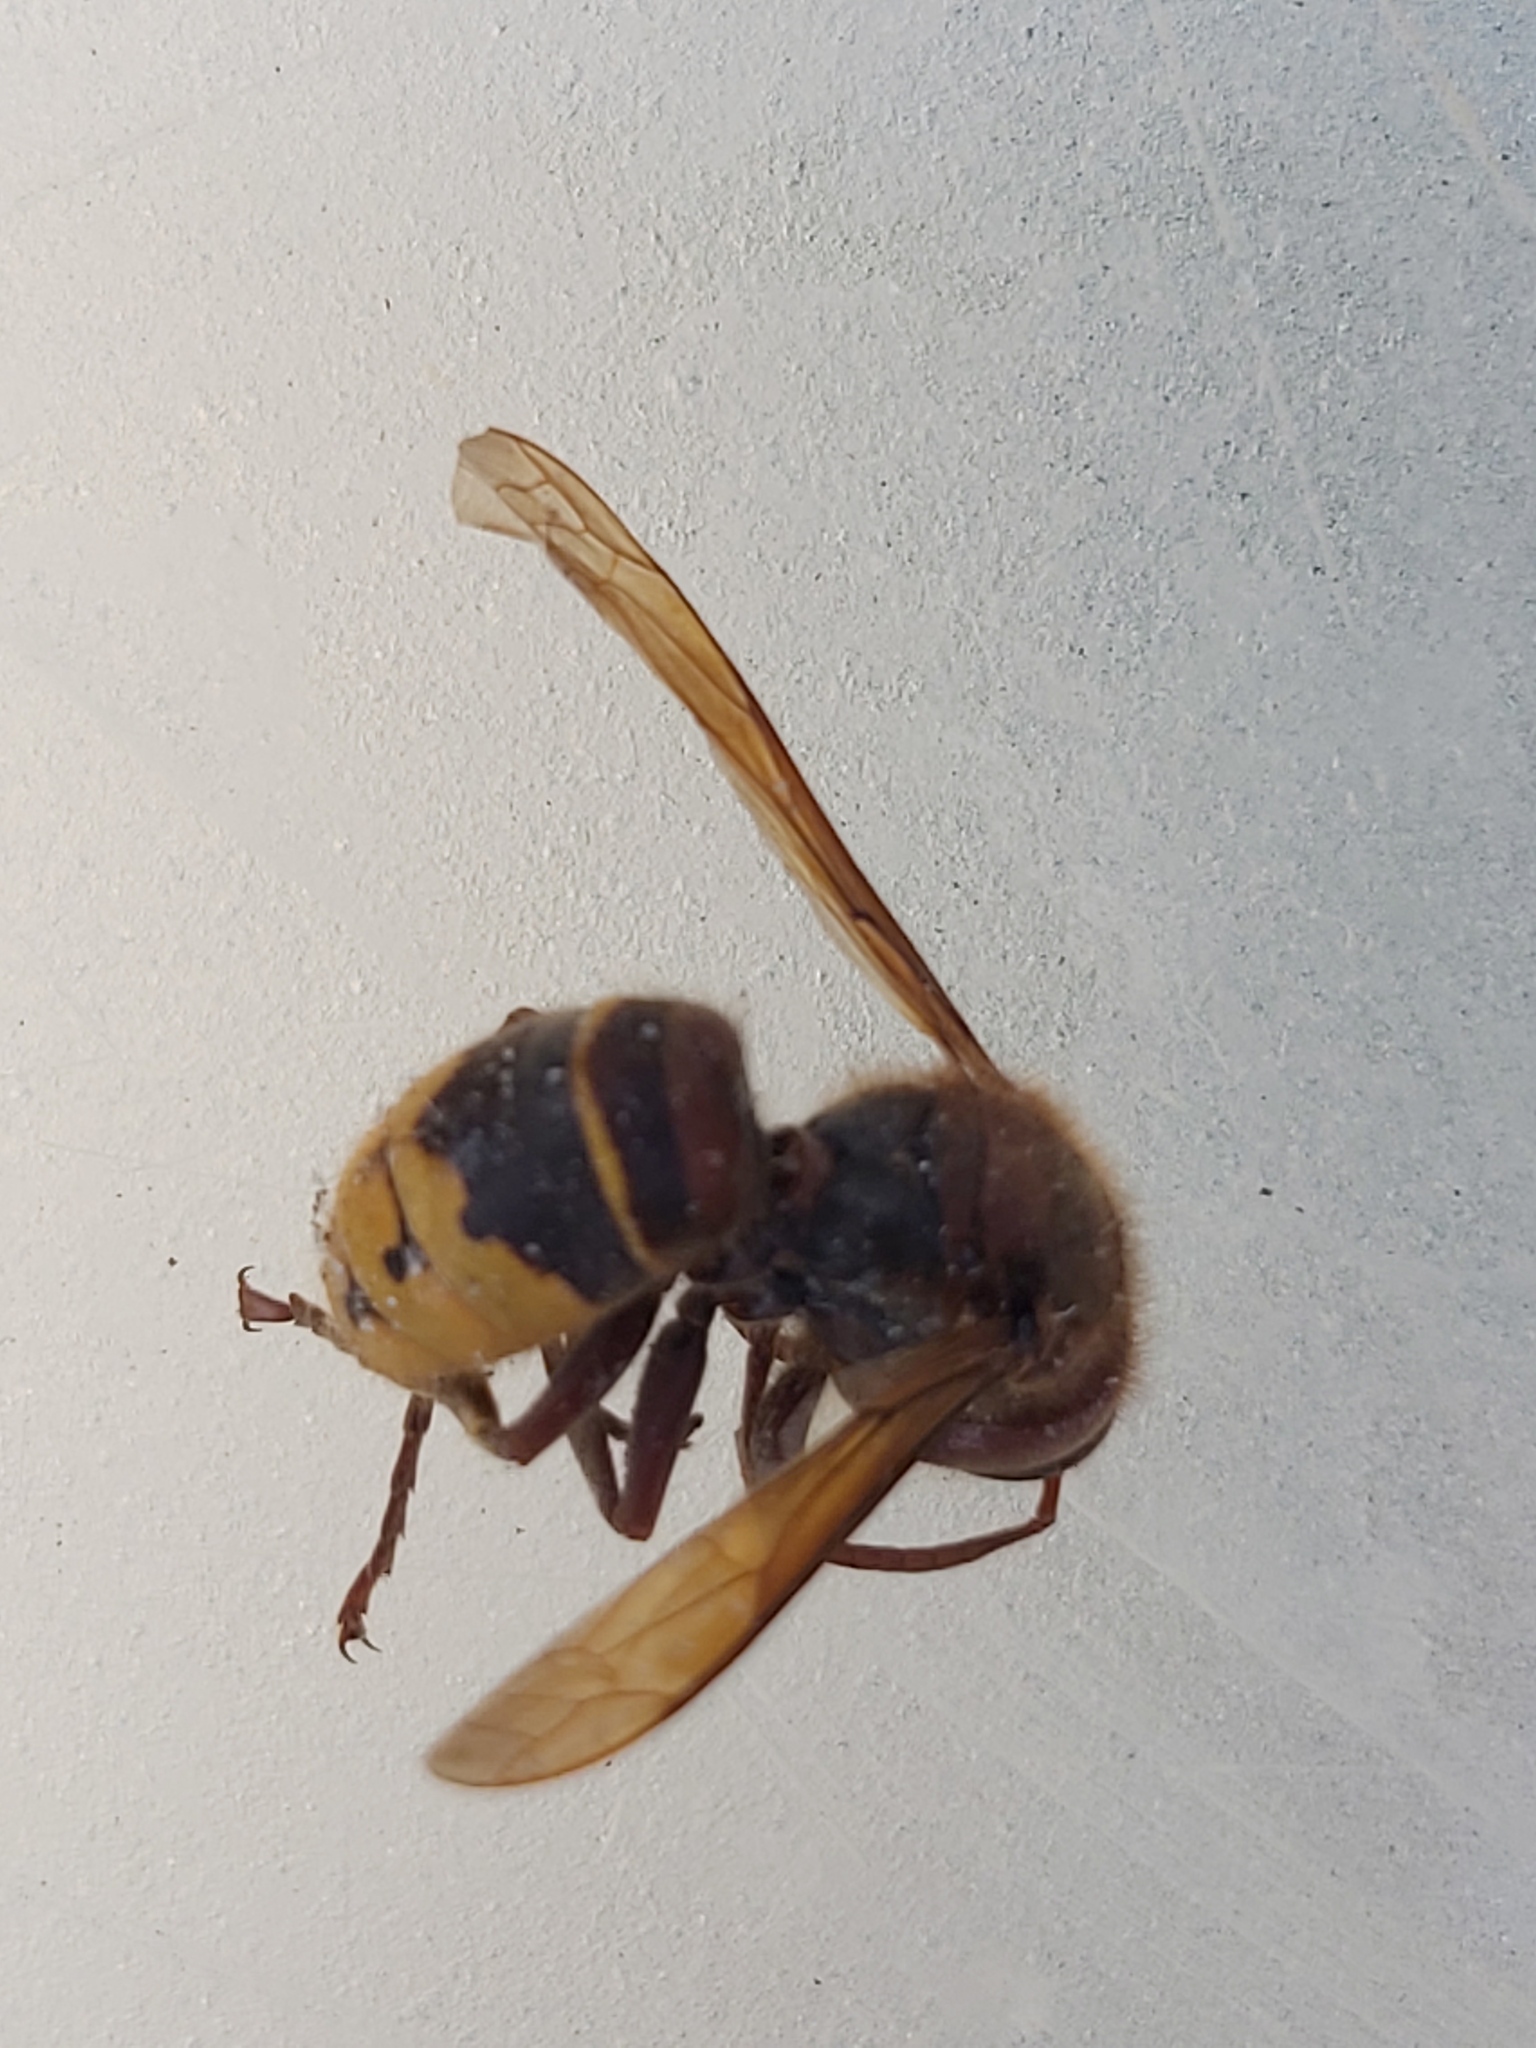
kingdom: Animalia
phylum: Arthropoda
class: Insecta
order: Hymenoptera
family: Vespidae
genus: Vespa
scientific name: Vespa crabro
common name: Hornet
